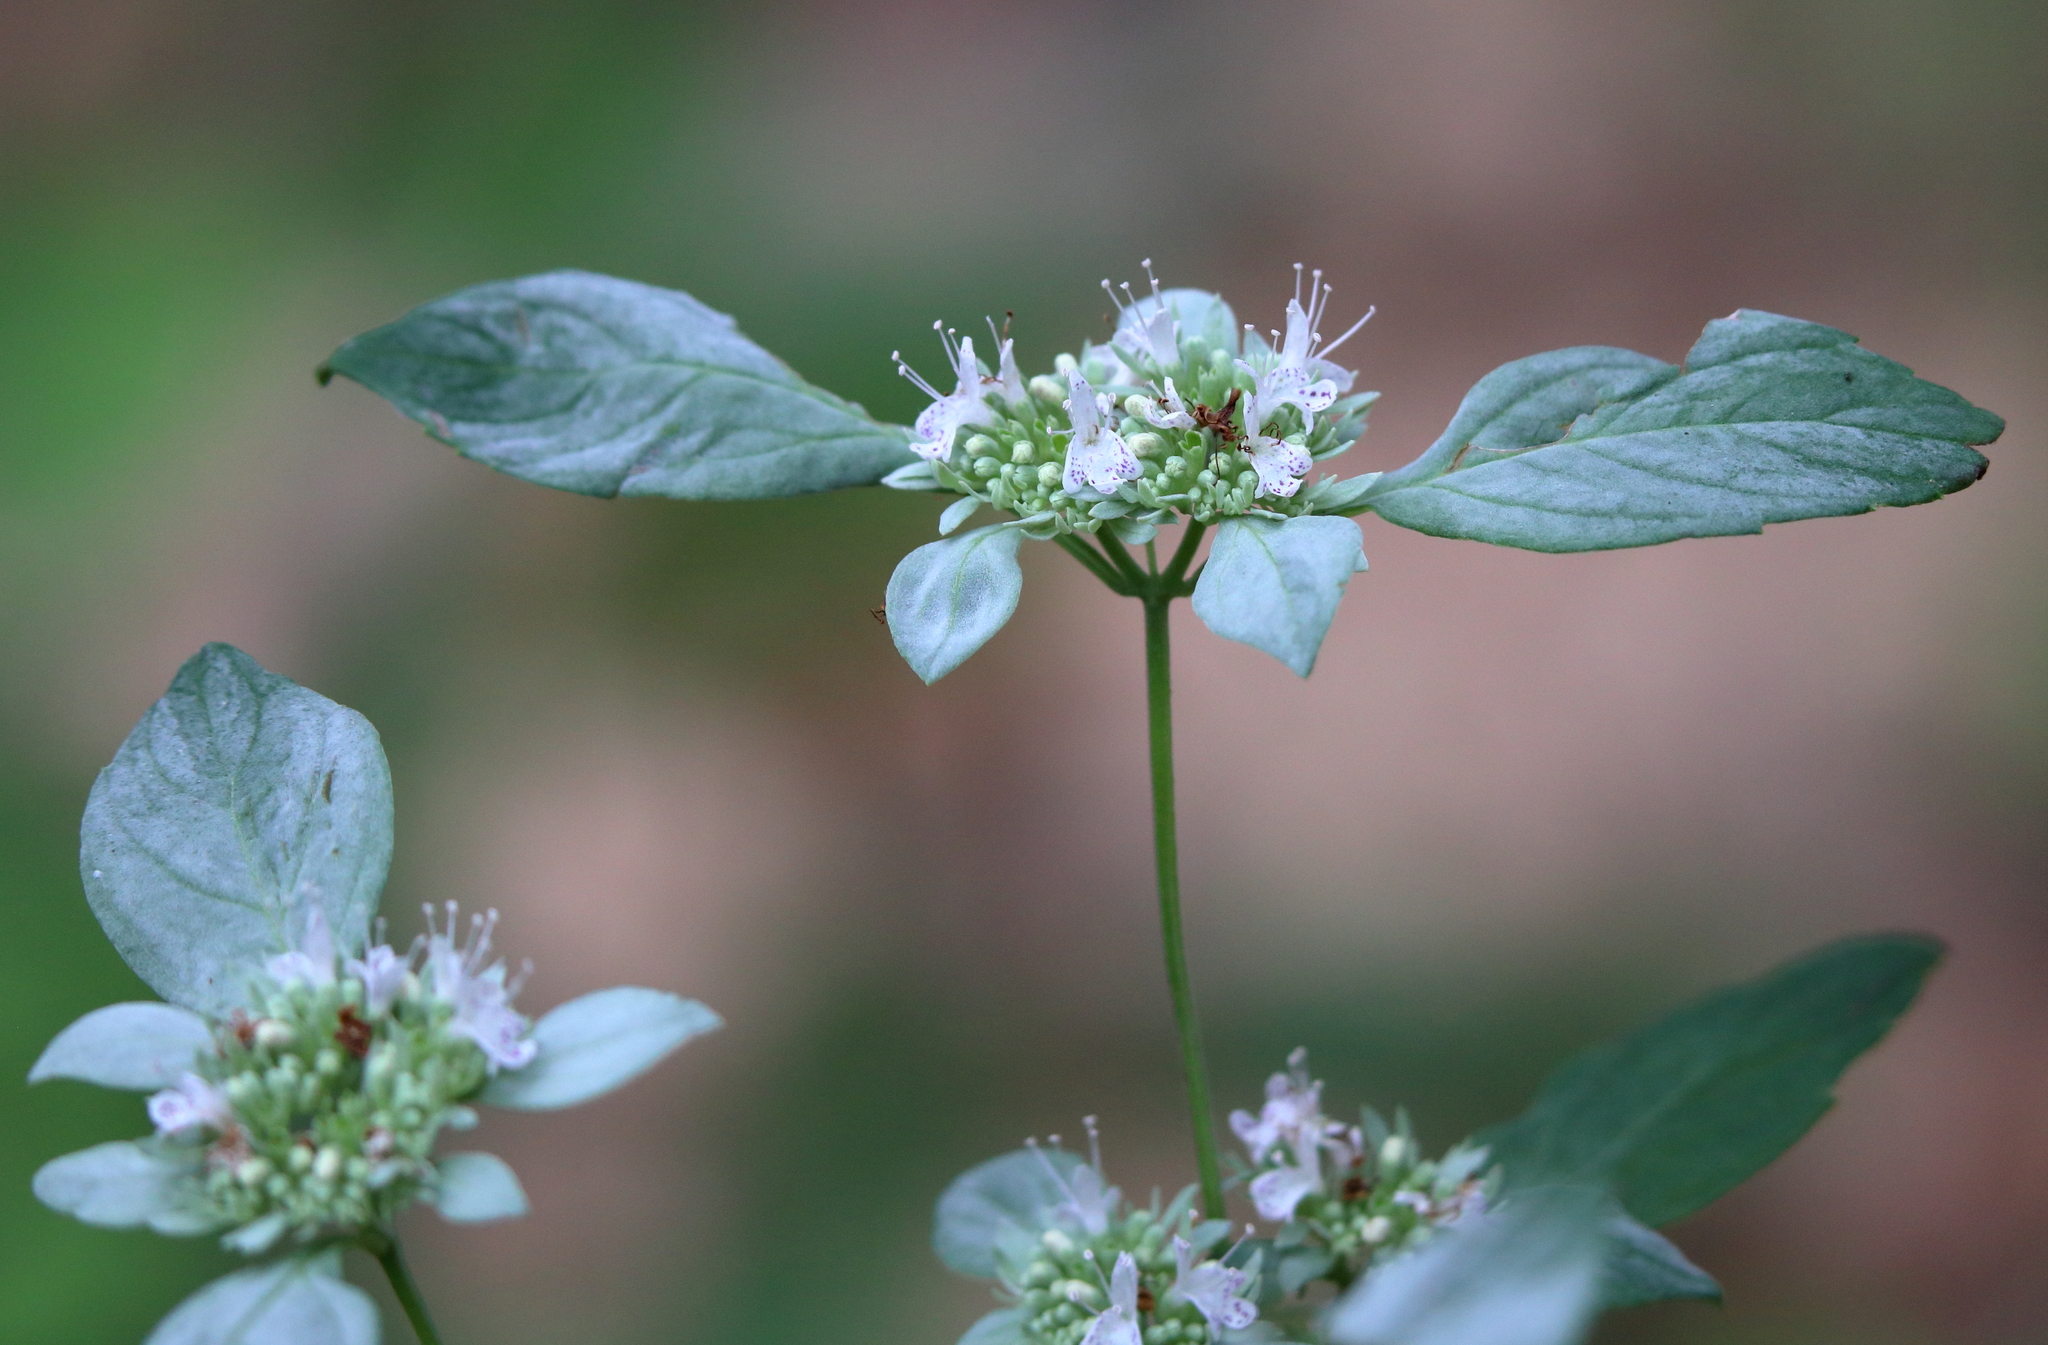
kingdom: Plantae
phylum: Tracheophyta
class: Magnoliopsida
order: Lamiales
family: Lamiaceae
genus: Pycnanthemum
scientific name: Pycnanthemum albescens
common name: White-leaf mountain-mint
